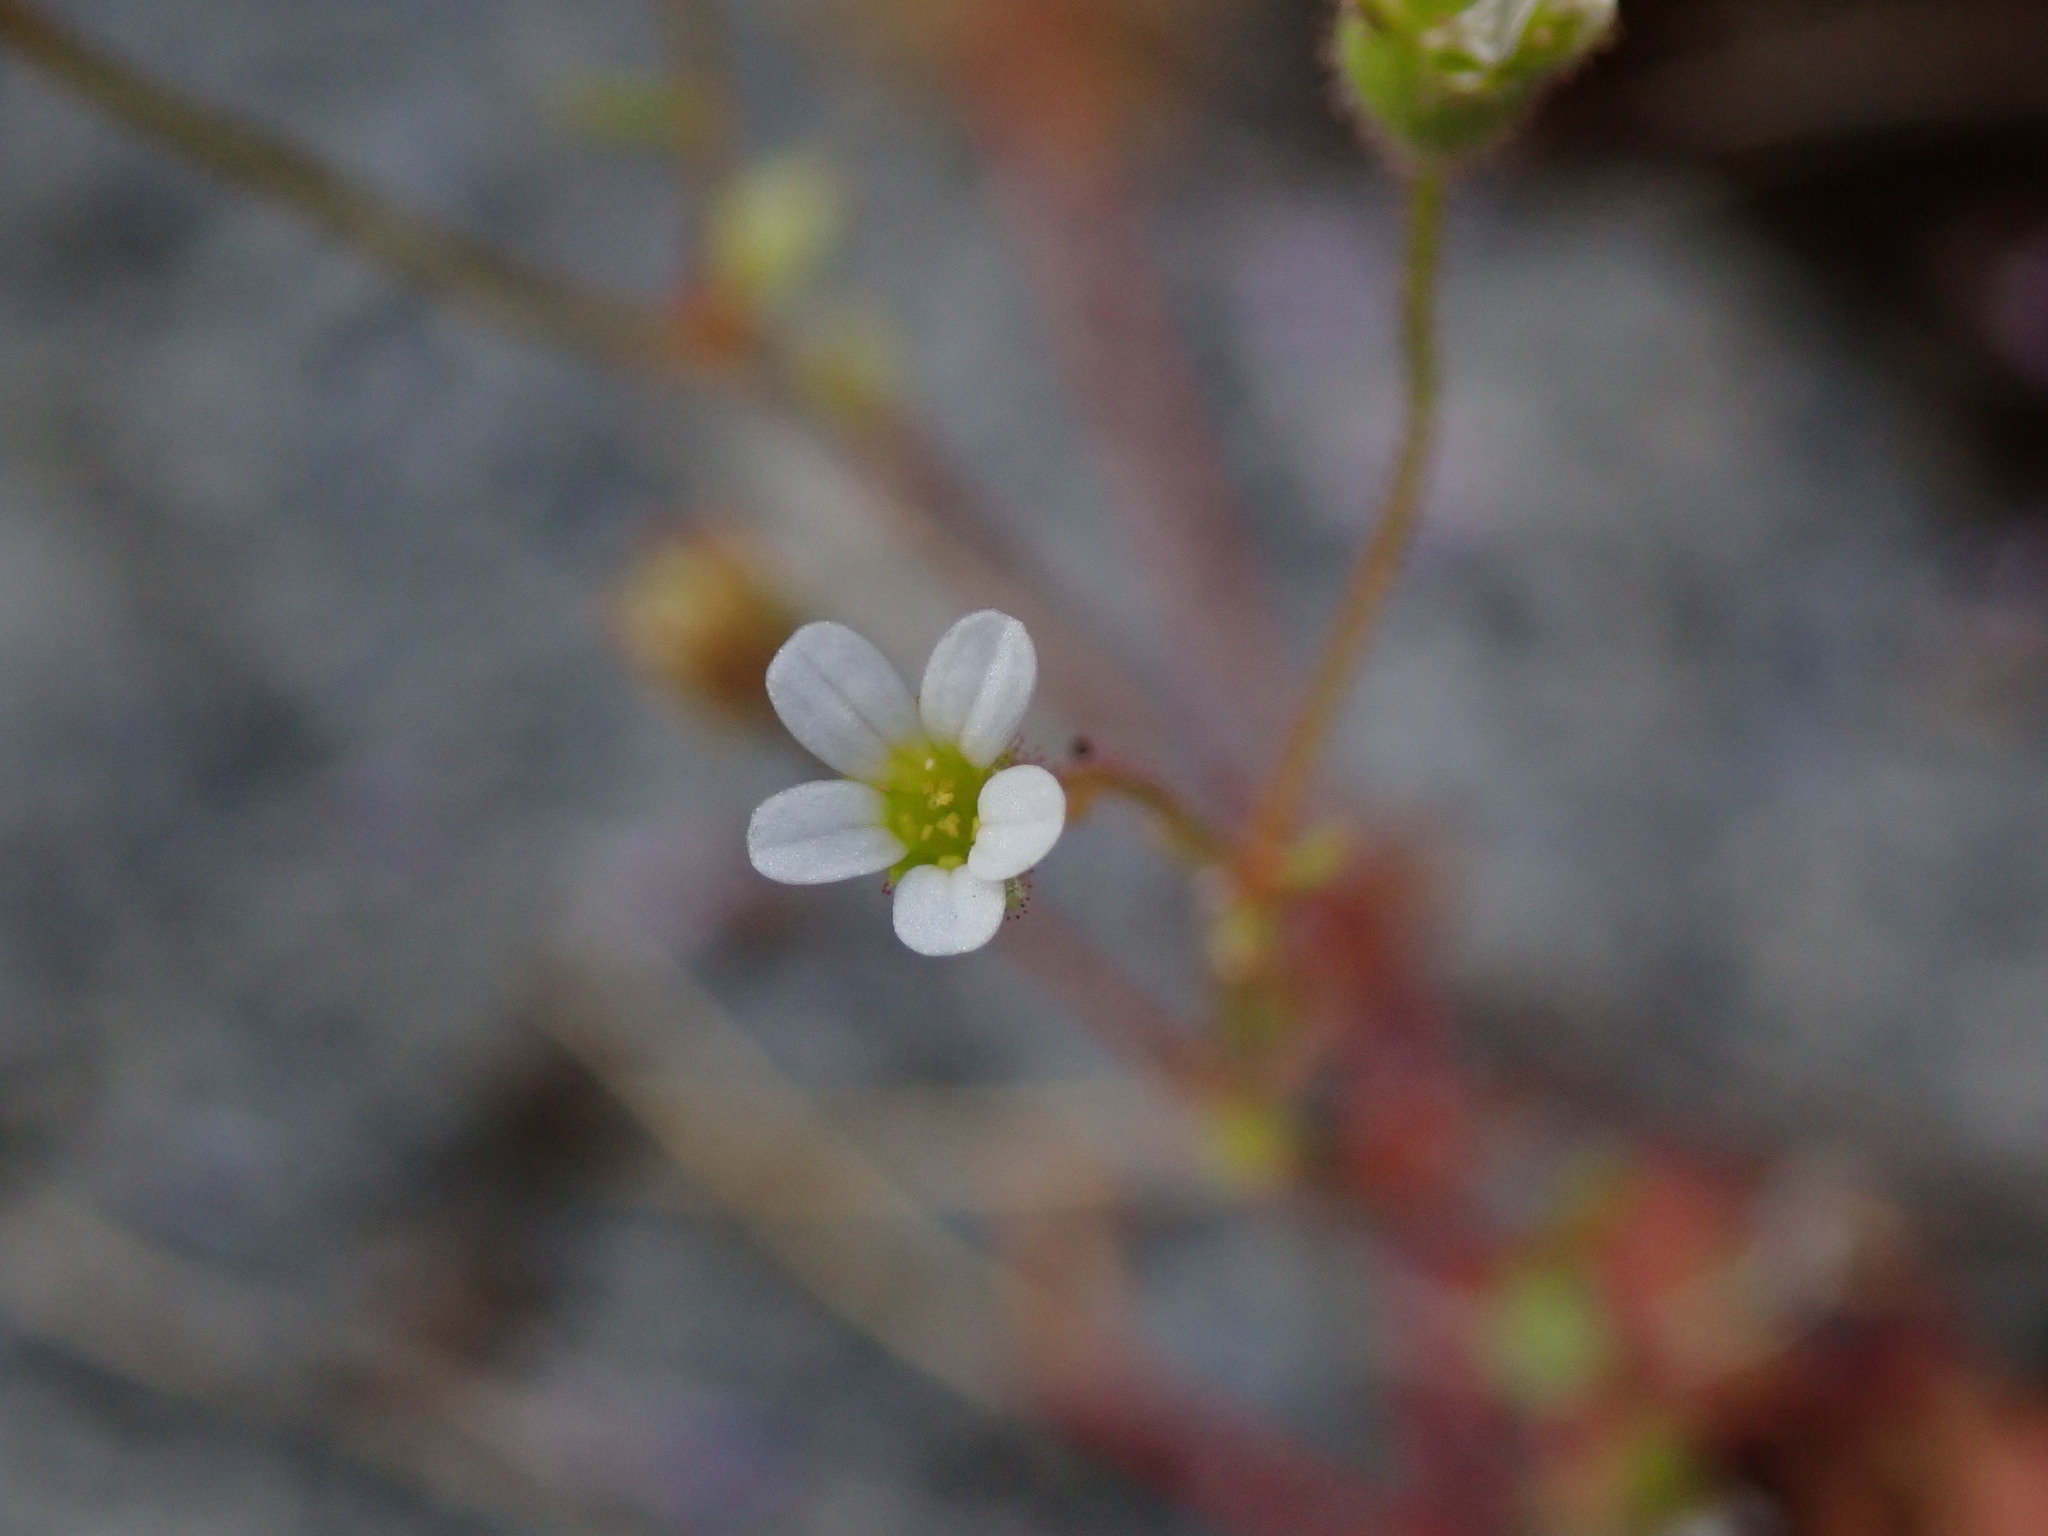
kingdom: Plantae
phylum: Tracheophyta
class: Magnoliopsida
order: Saxifragales
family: Saxifragaceae
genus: Saxifraga
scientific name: Saxifraga tridactylites
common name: Rue-leaved saxifrage
